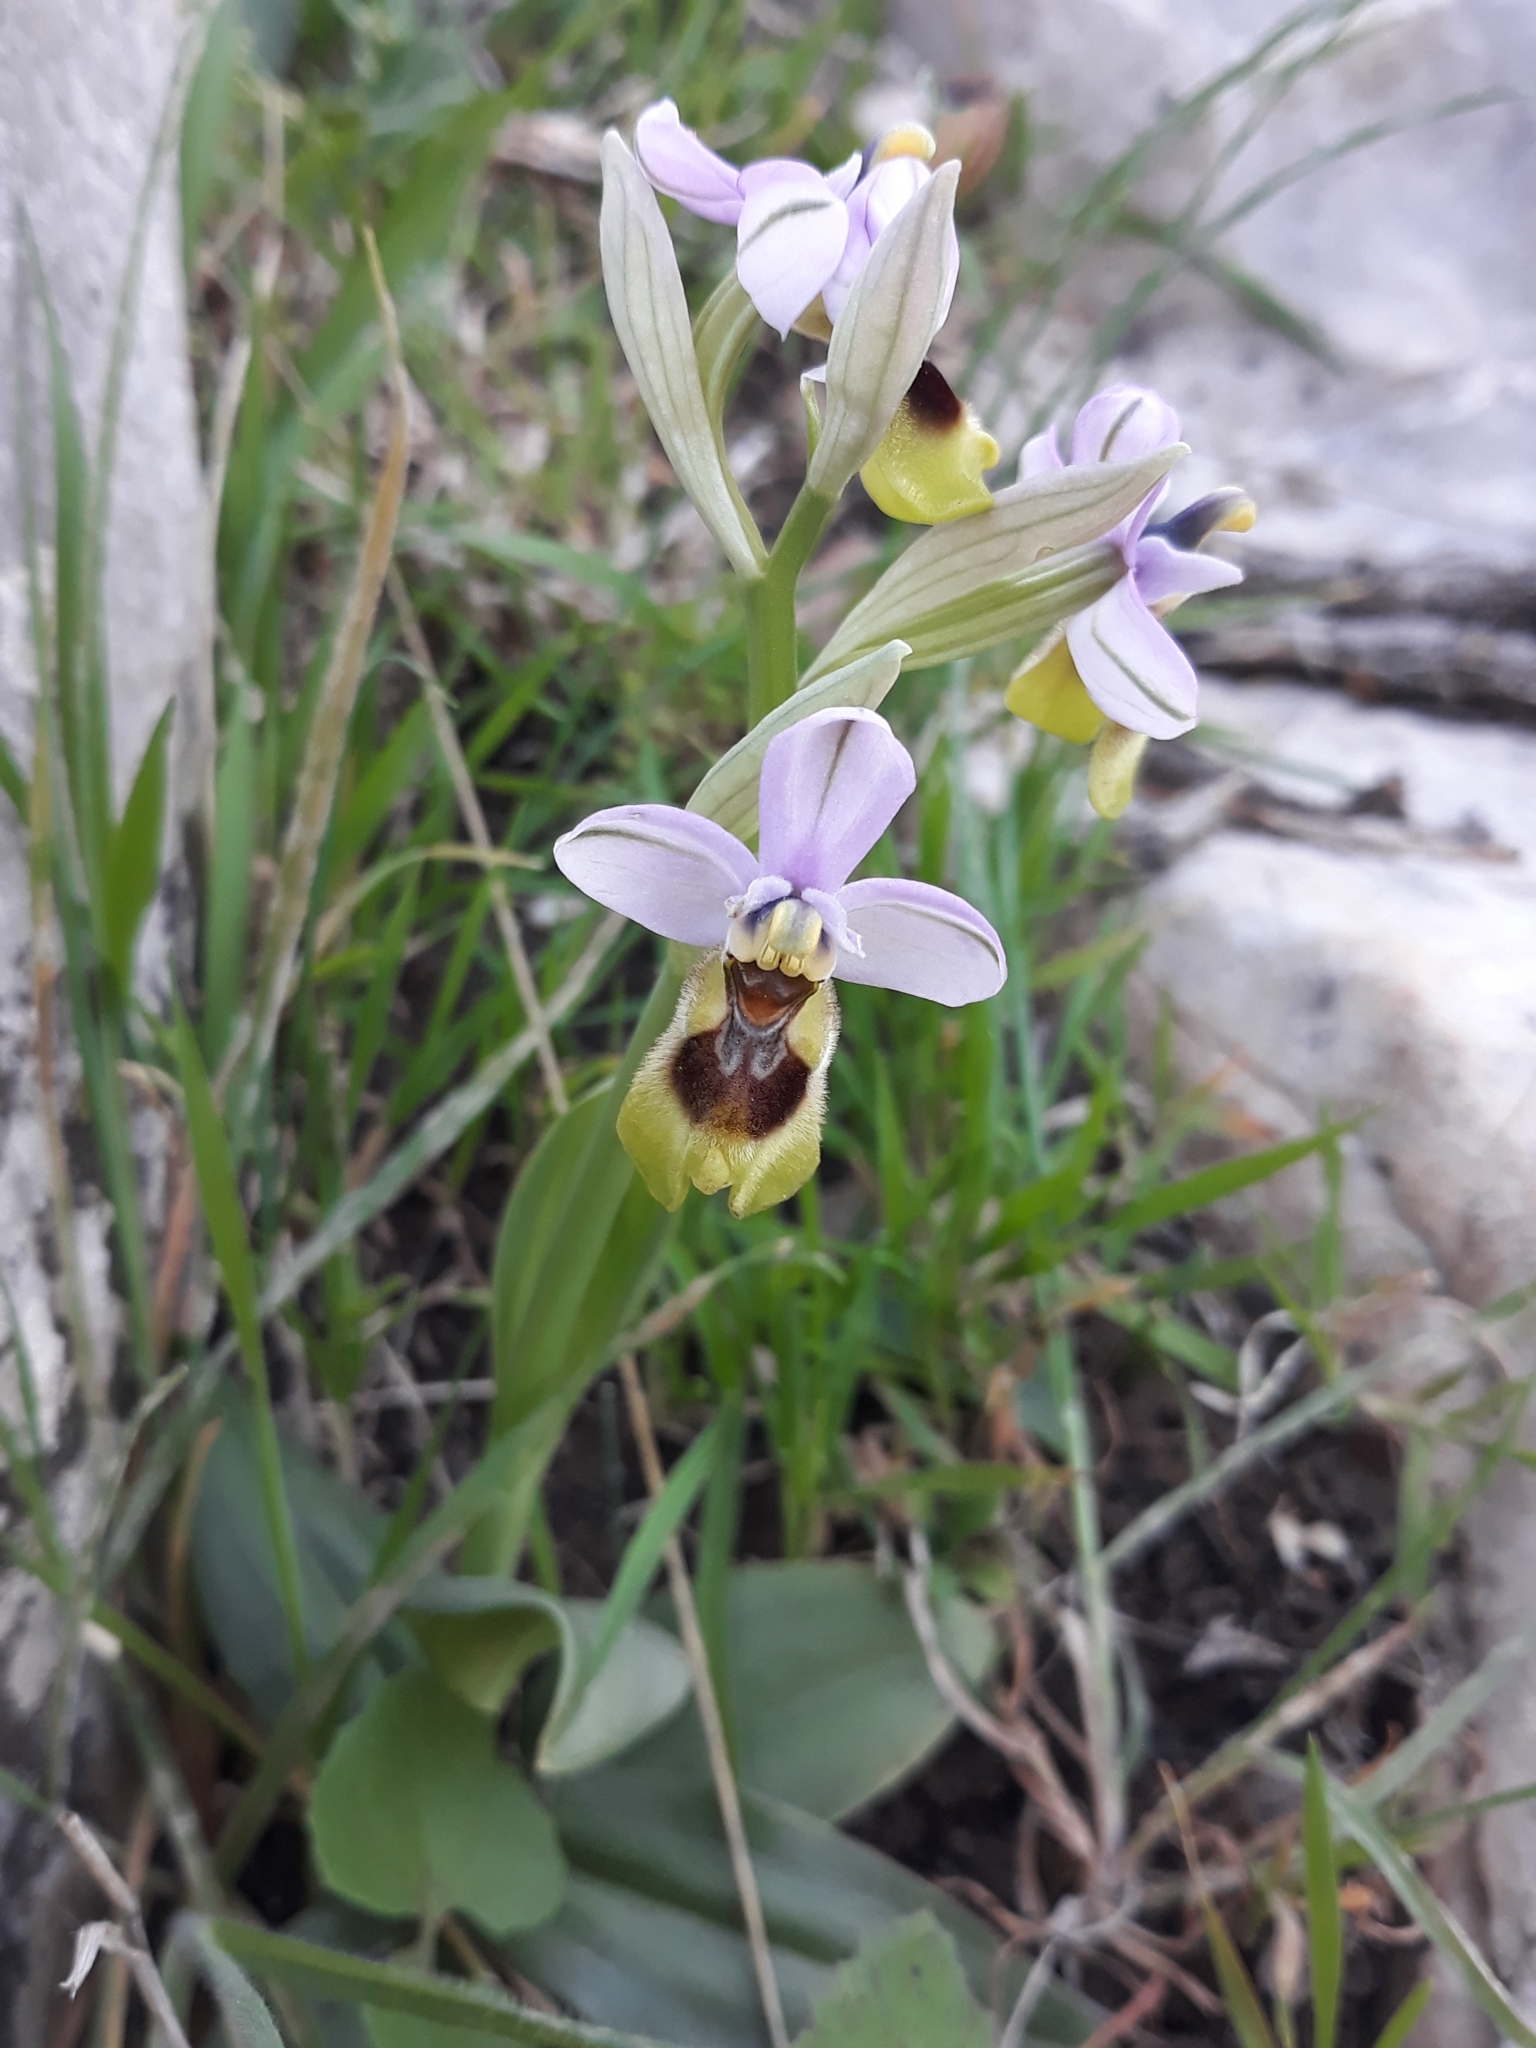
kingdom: Plantae
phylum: Tracheophyta
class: Liliopsida
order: Asparagales
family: Orchidaceae
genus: Ophrys
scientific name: Ophrys tenthredinifera
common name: Sawfly orchid
